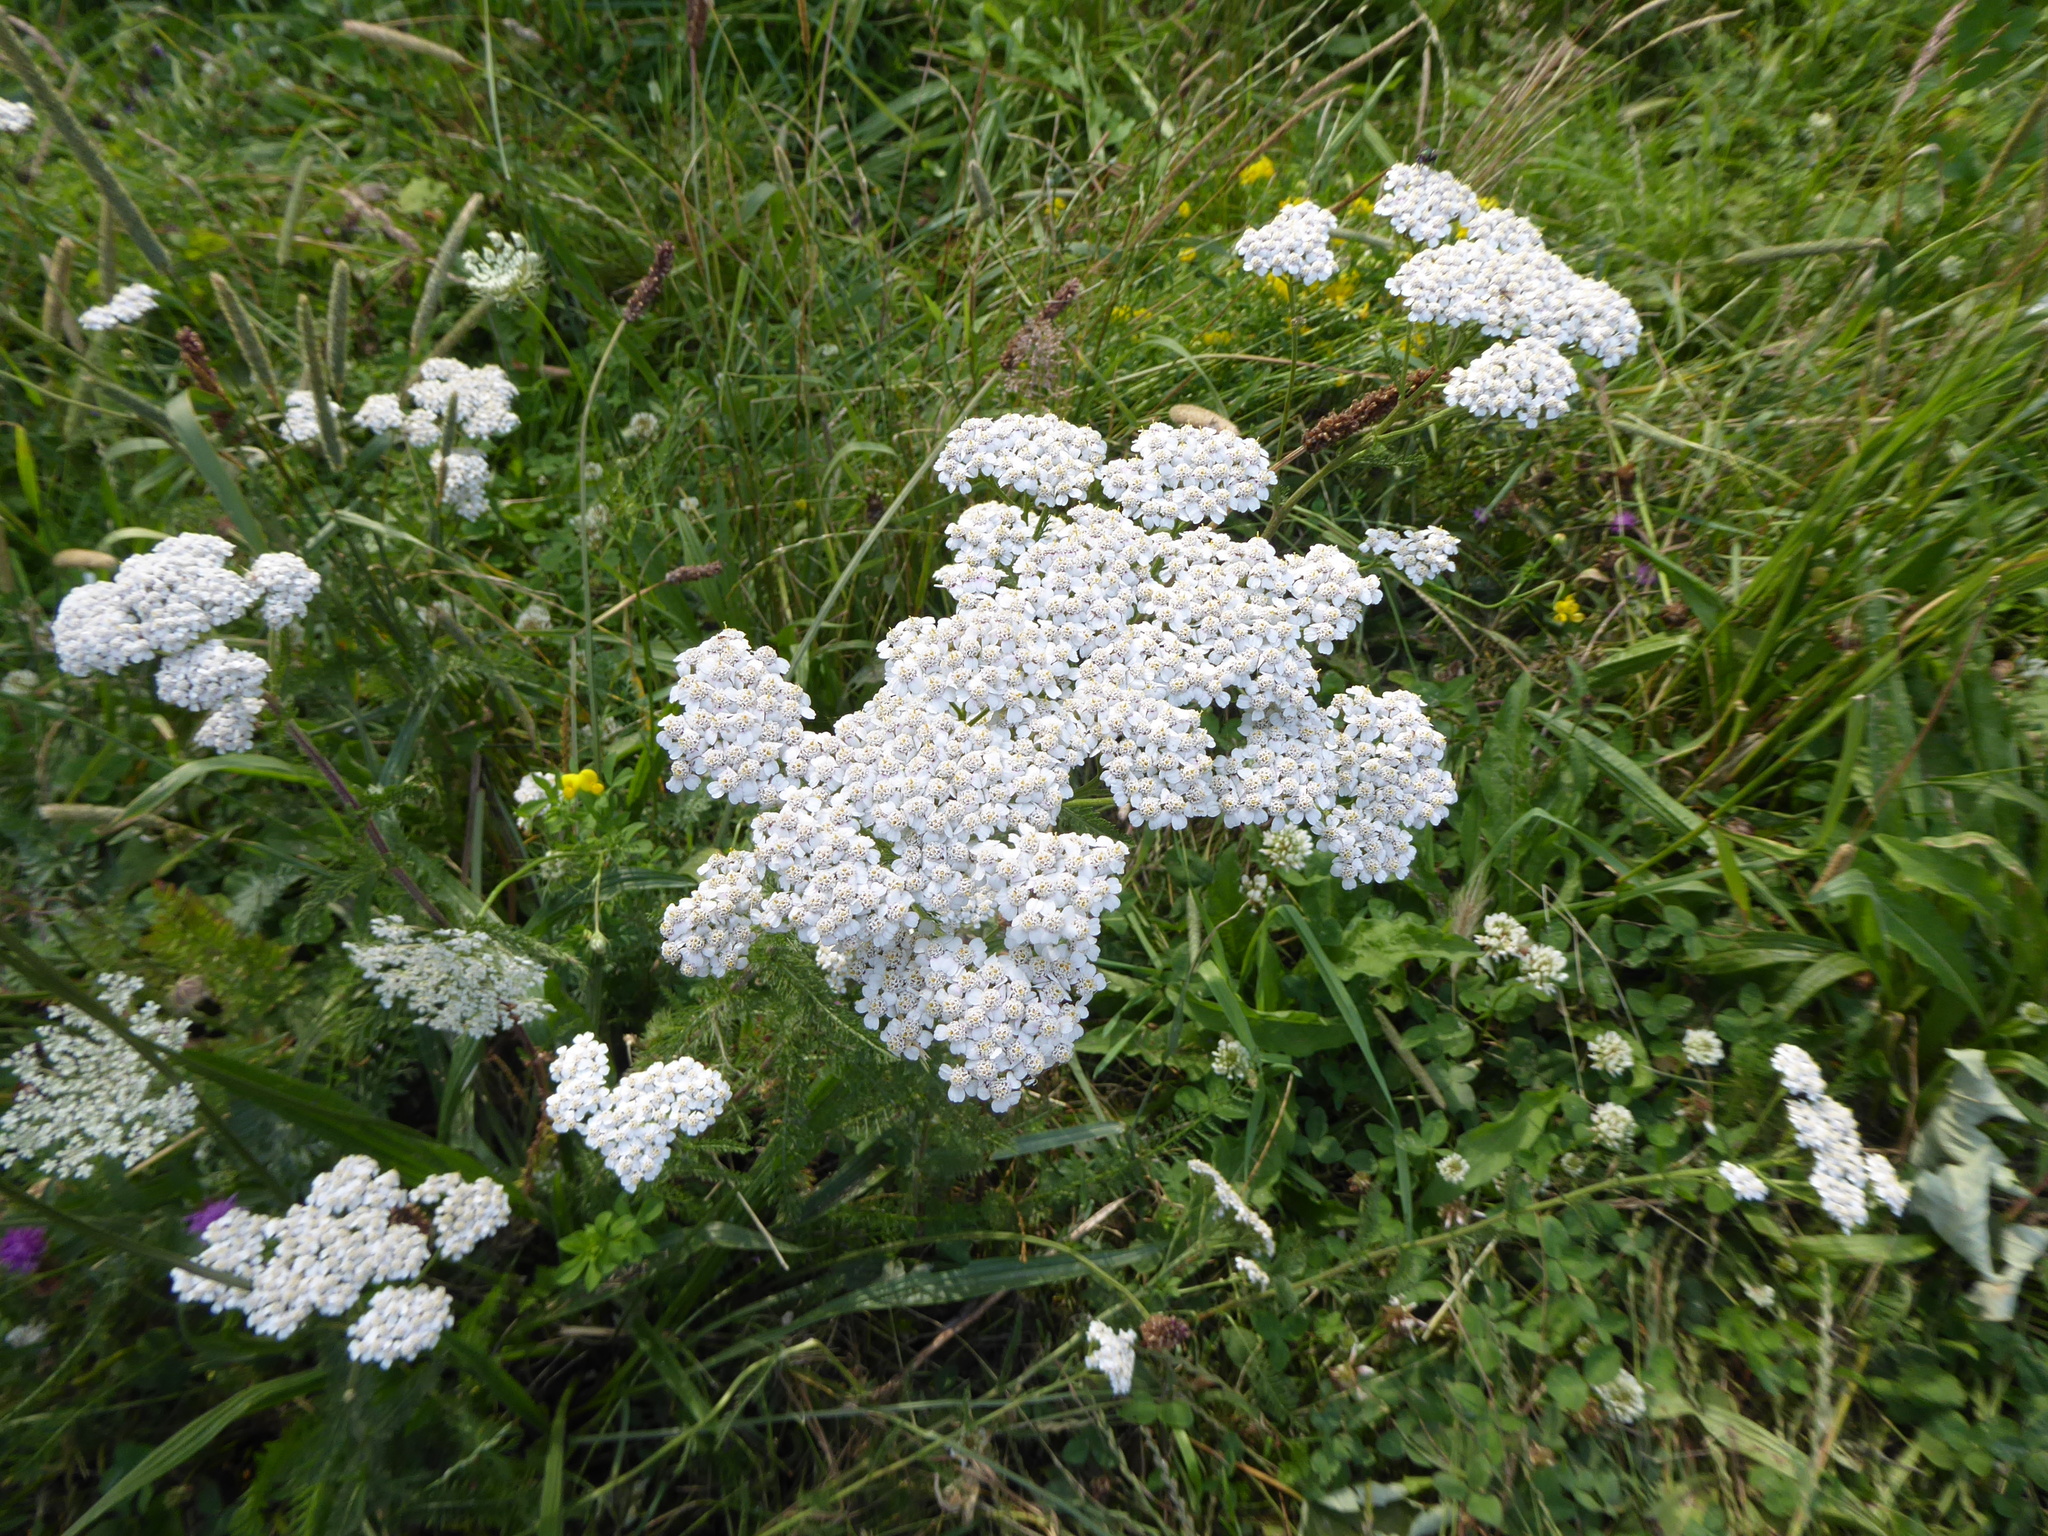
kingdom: Plantae
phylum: Tracheophyta
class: Magnoliopsida
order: Asterales
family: Asteraceae
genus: Achillea
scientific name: Achillea millefolium
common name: Yarrow
